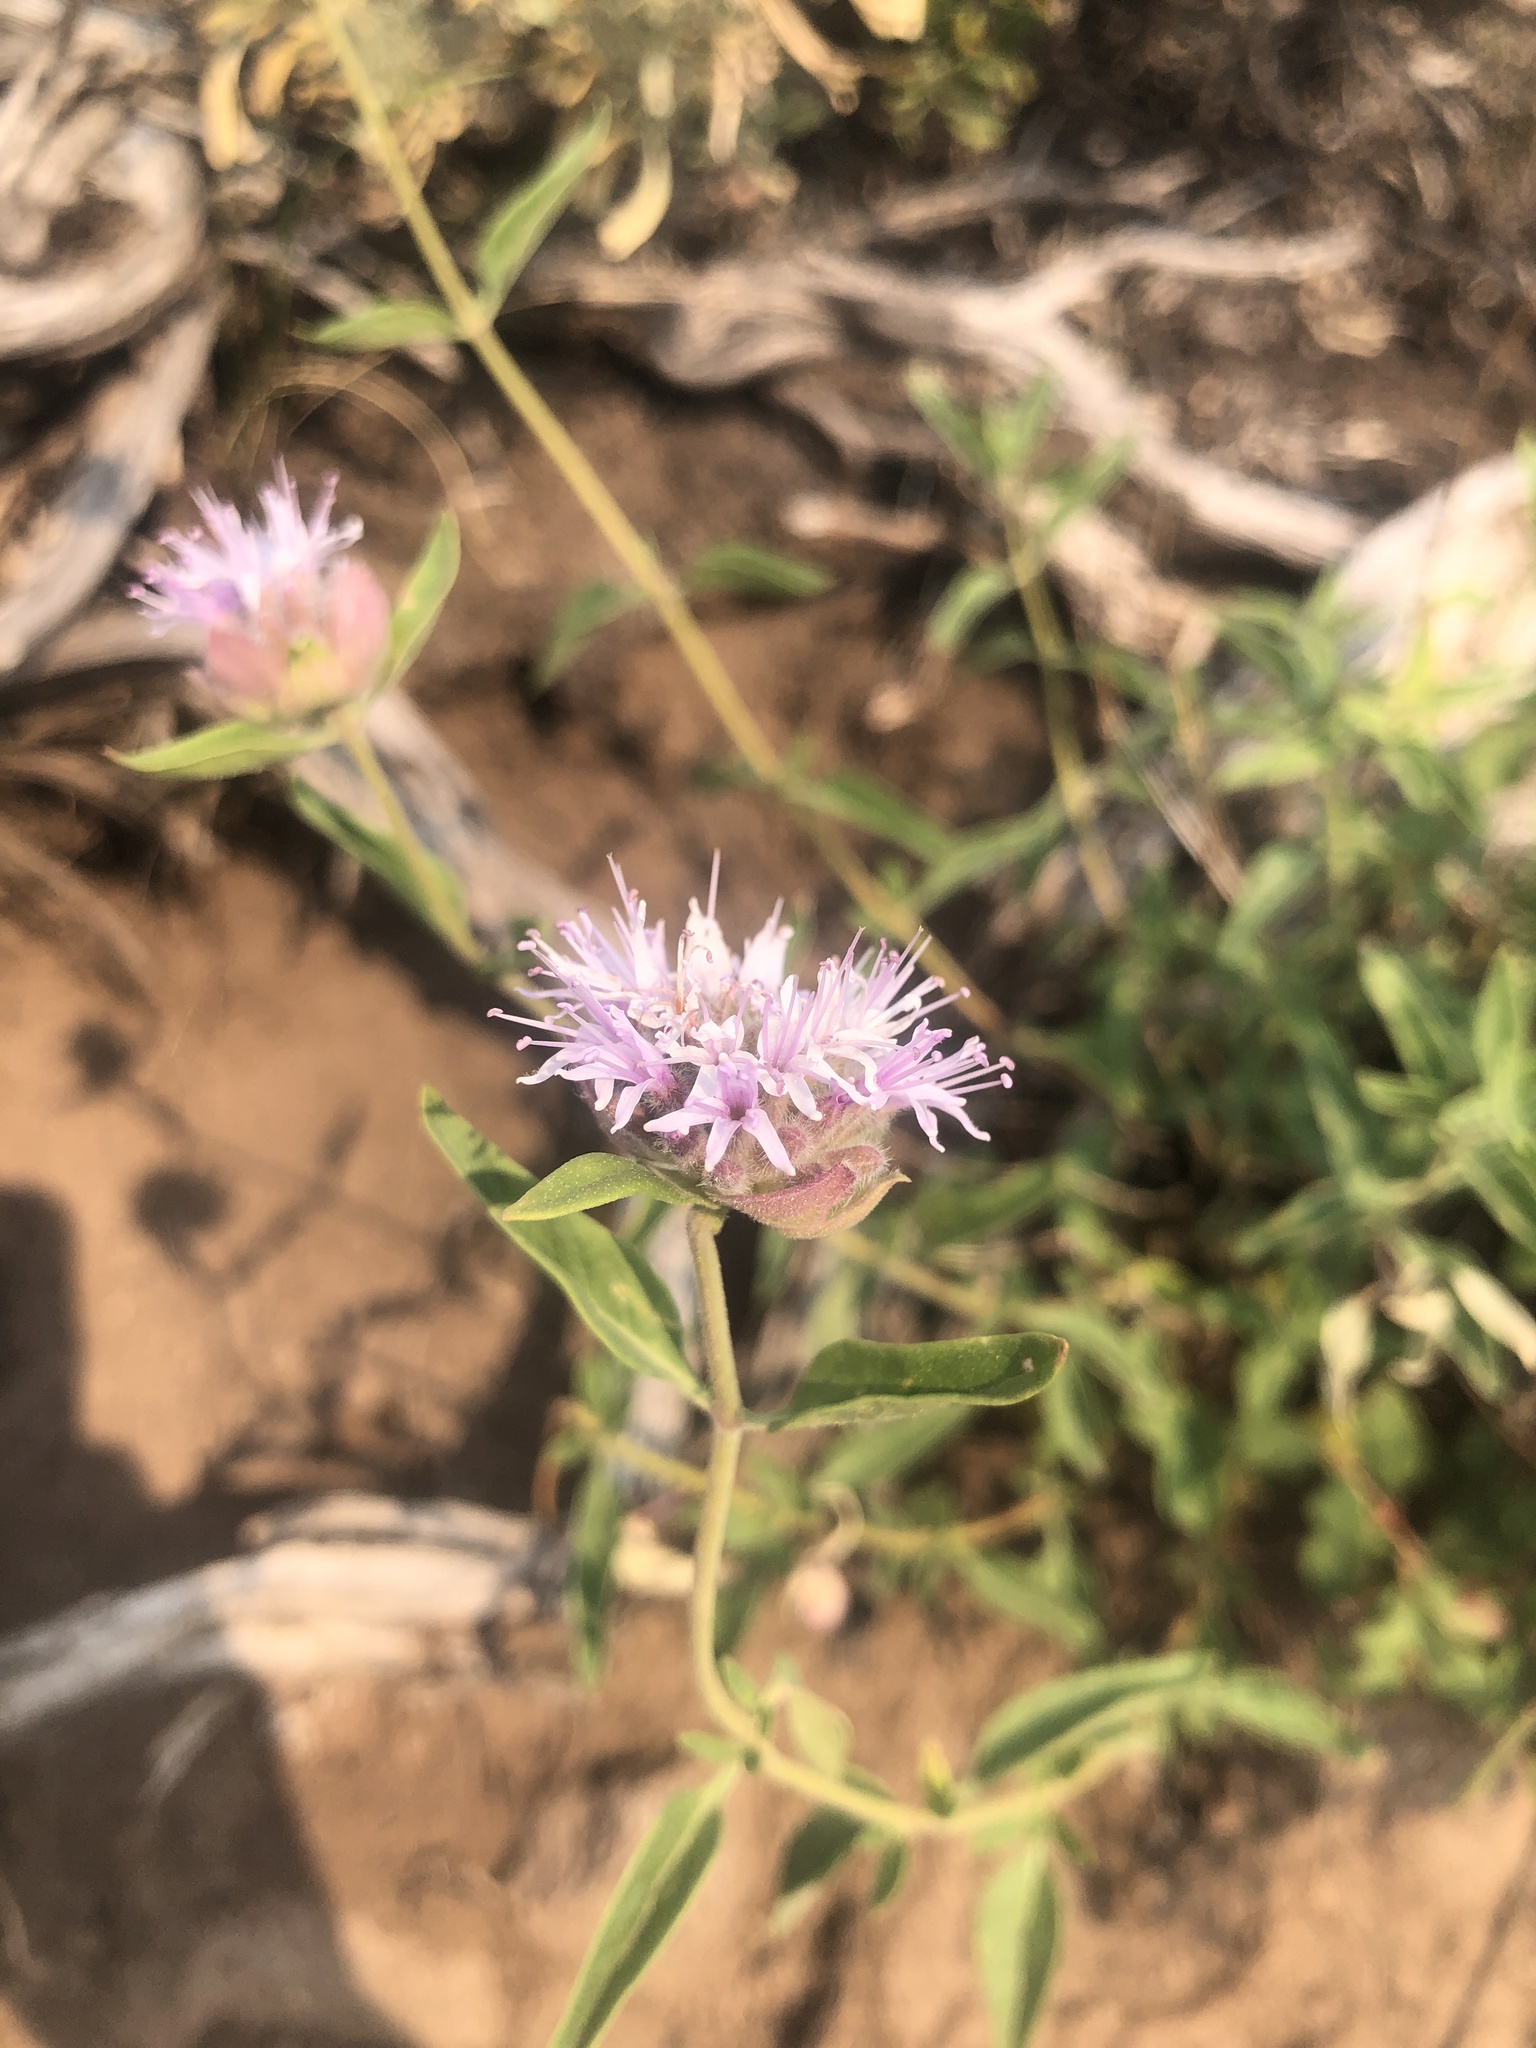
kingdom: Plantae
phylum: Tracheophyta
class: Magnoliopsida
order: Lamiales
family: Lamiaceae
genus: Monardella
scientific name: Monardella odoratissima
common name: Pacific monardella
